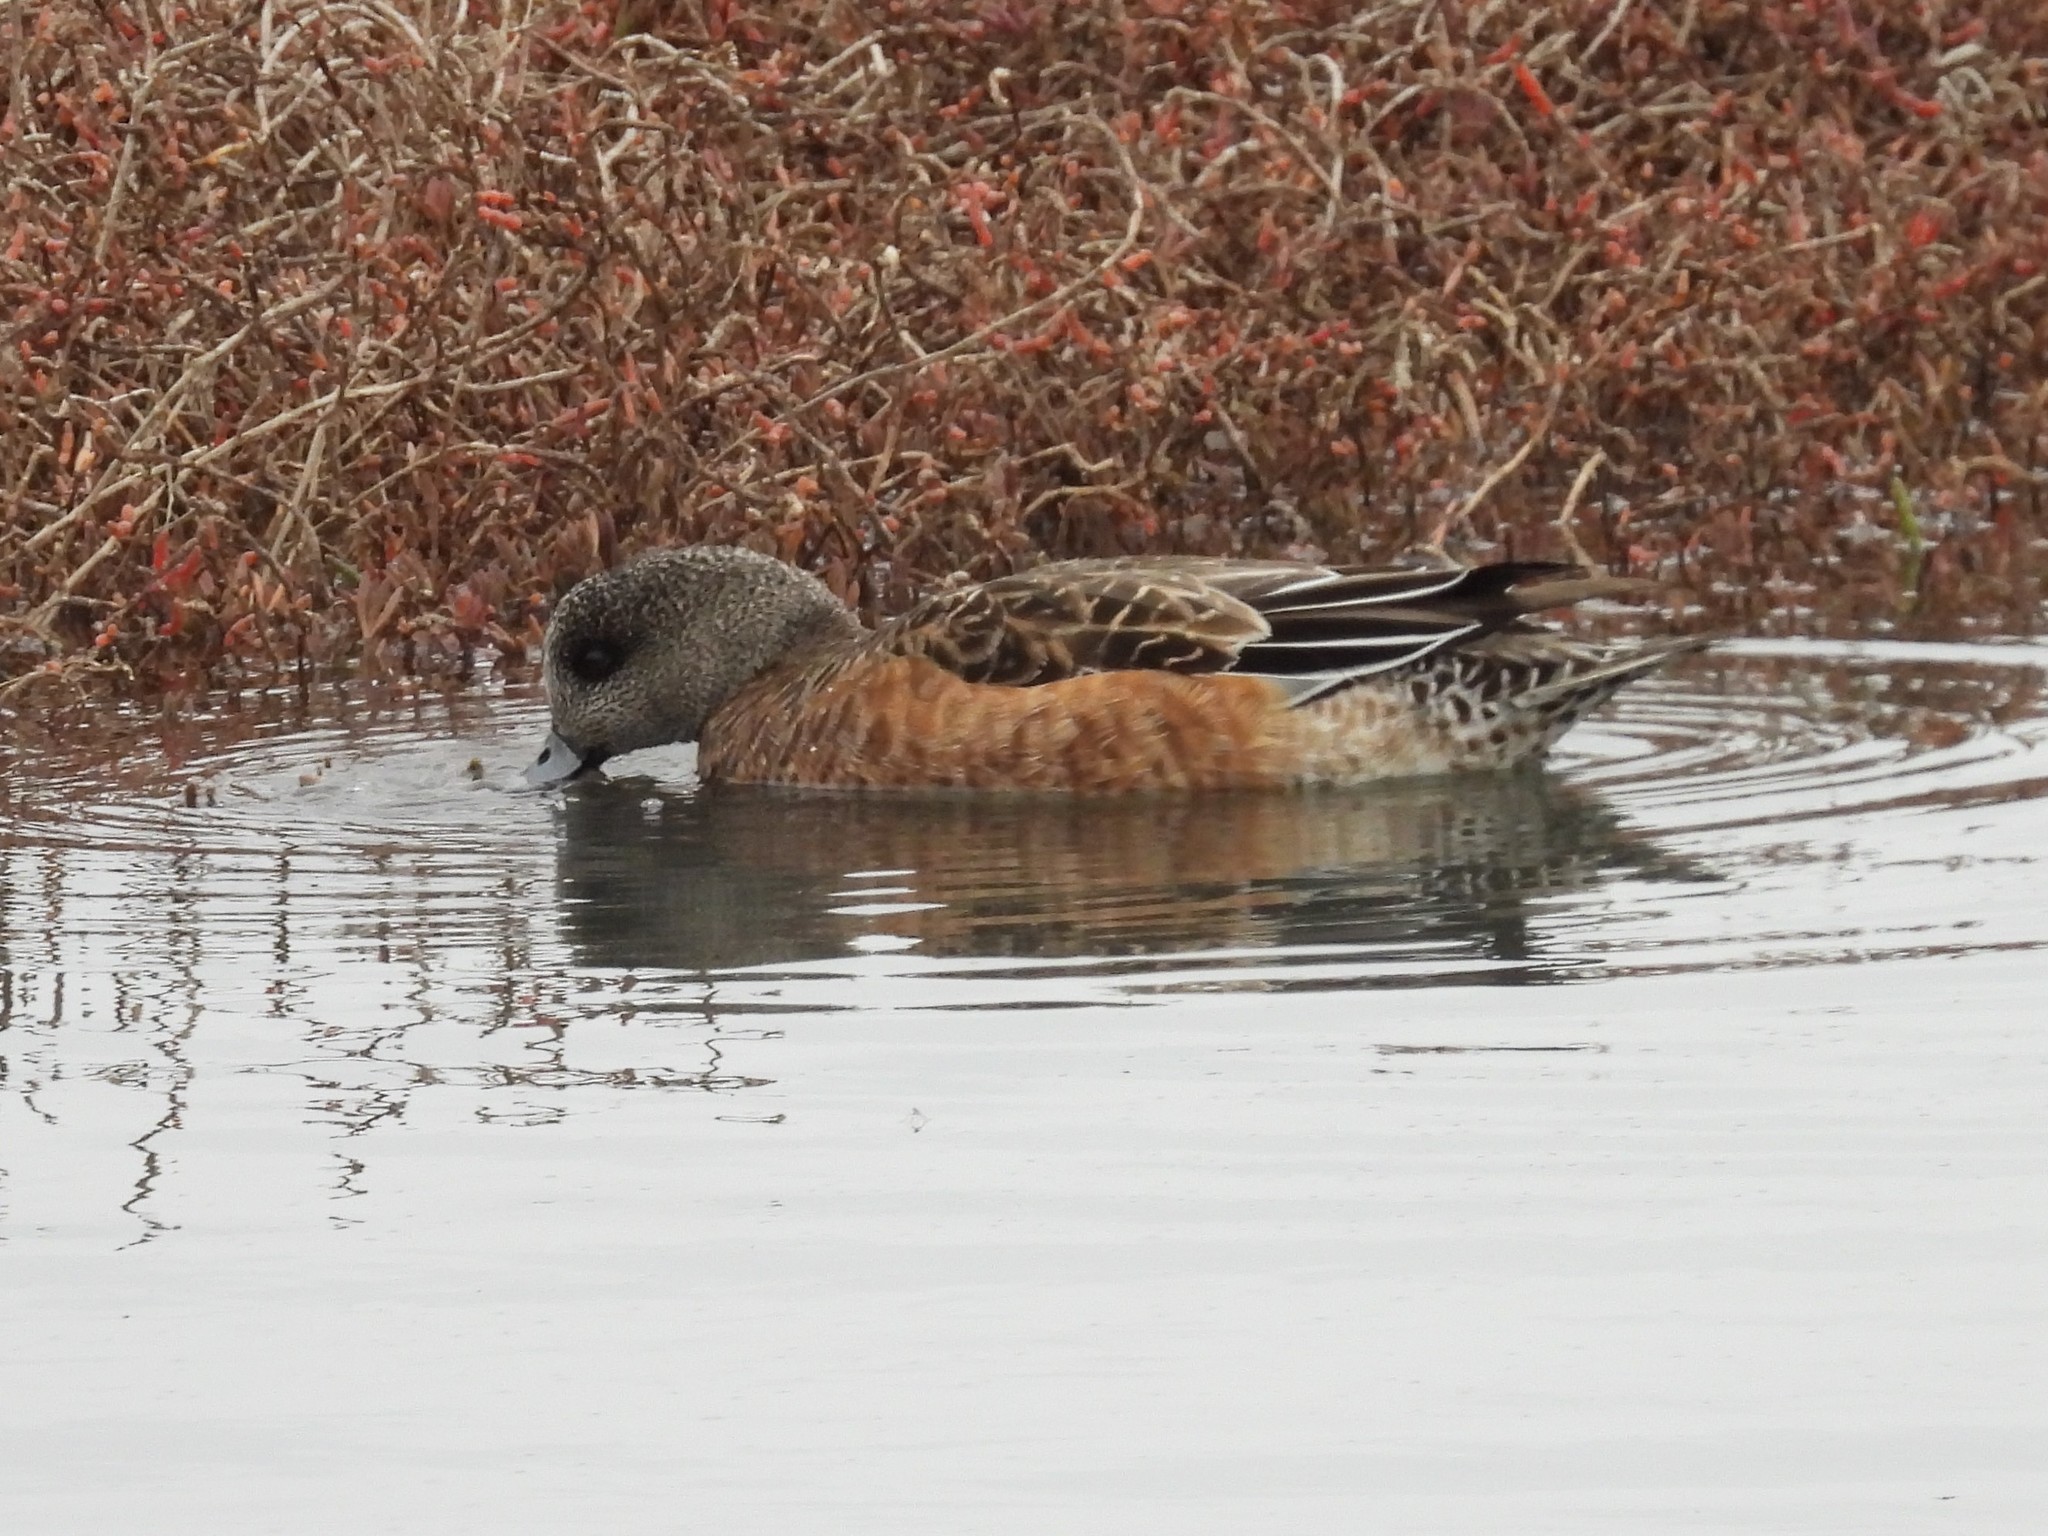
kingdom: Animalia
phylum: Chordata
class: Aves
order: Anseriformes
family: Anatidae
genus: Mareca
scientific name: Mareca americana
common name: American wigeon
